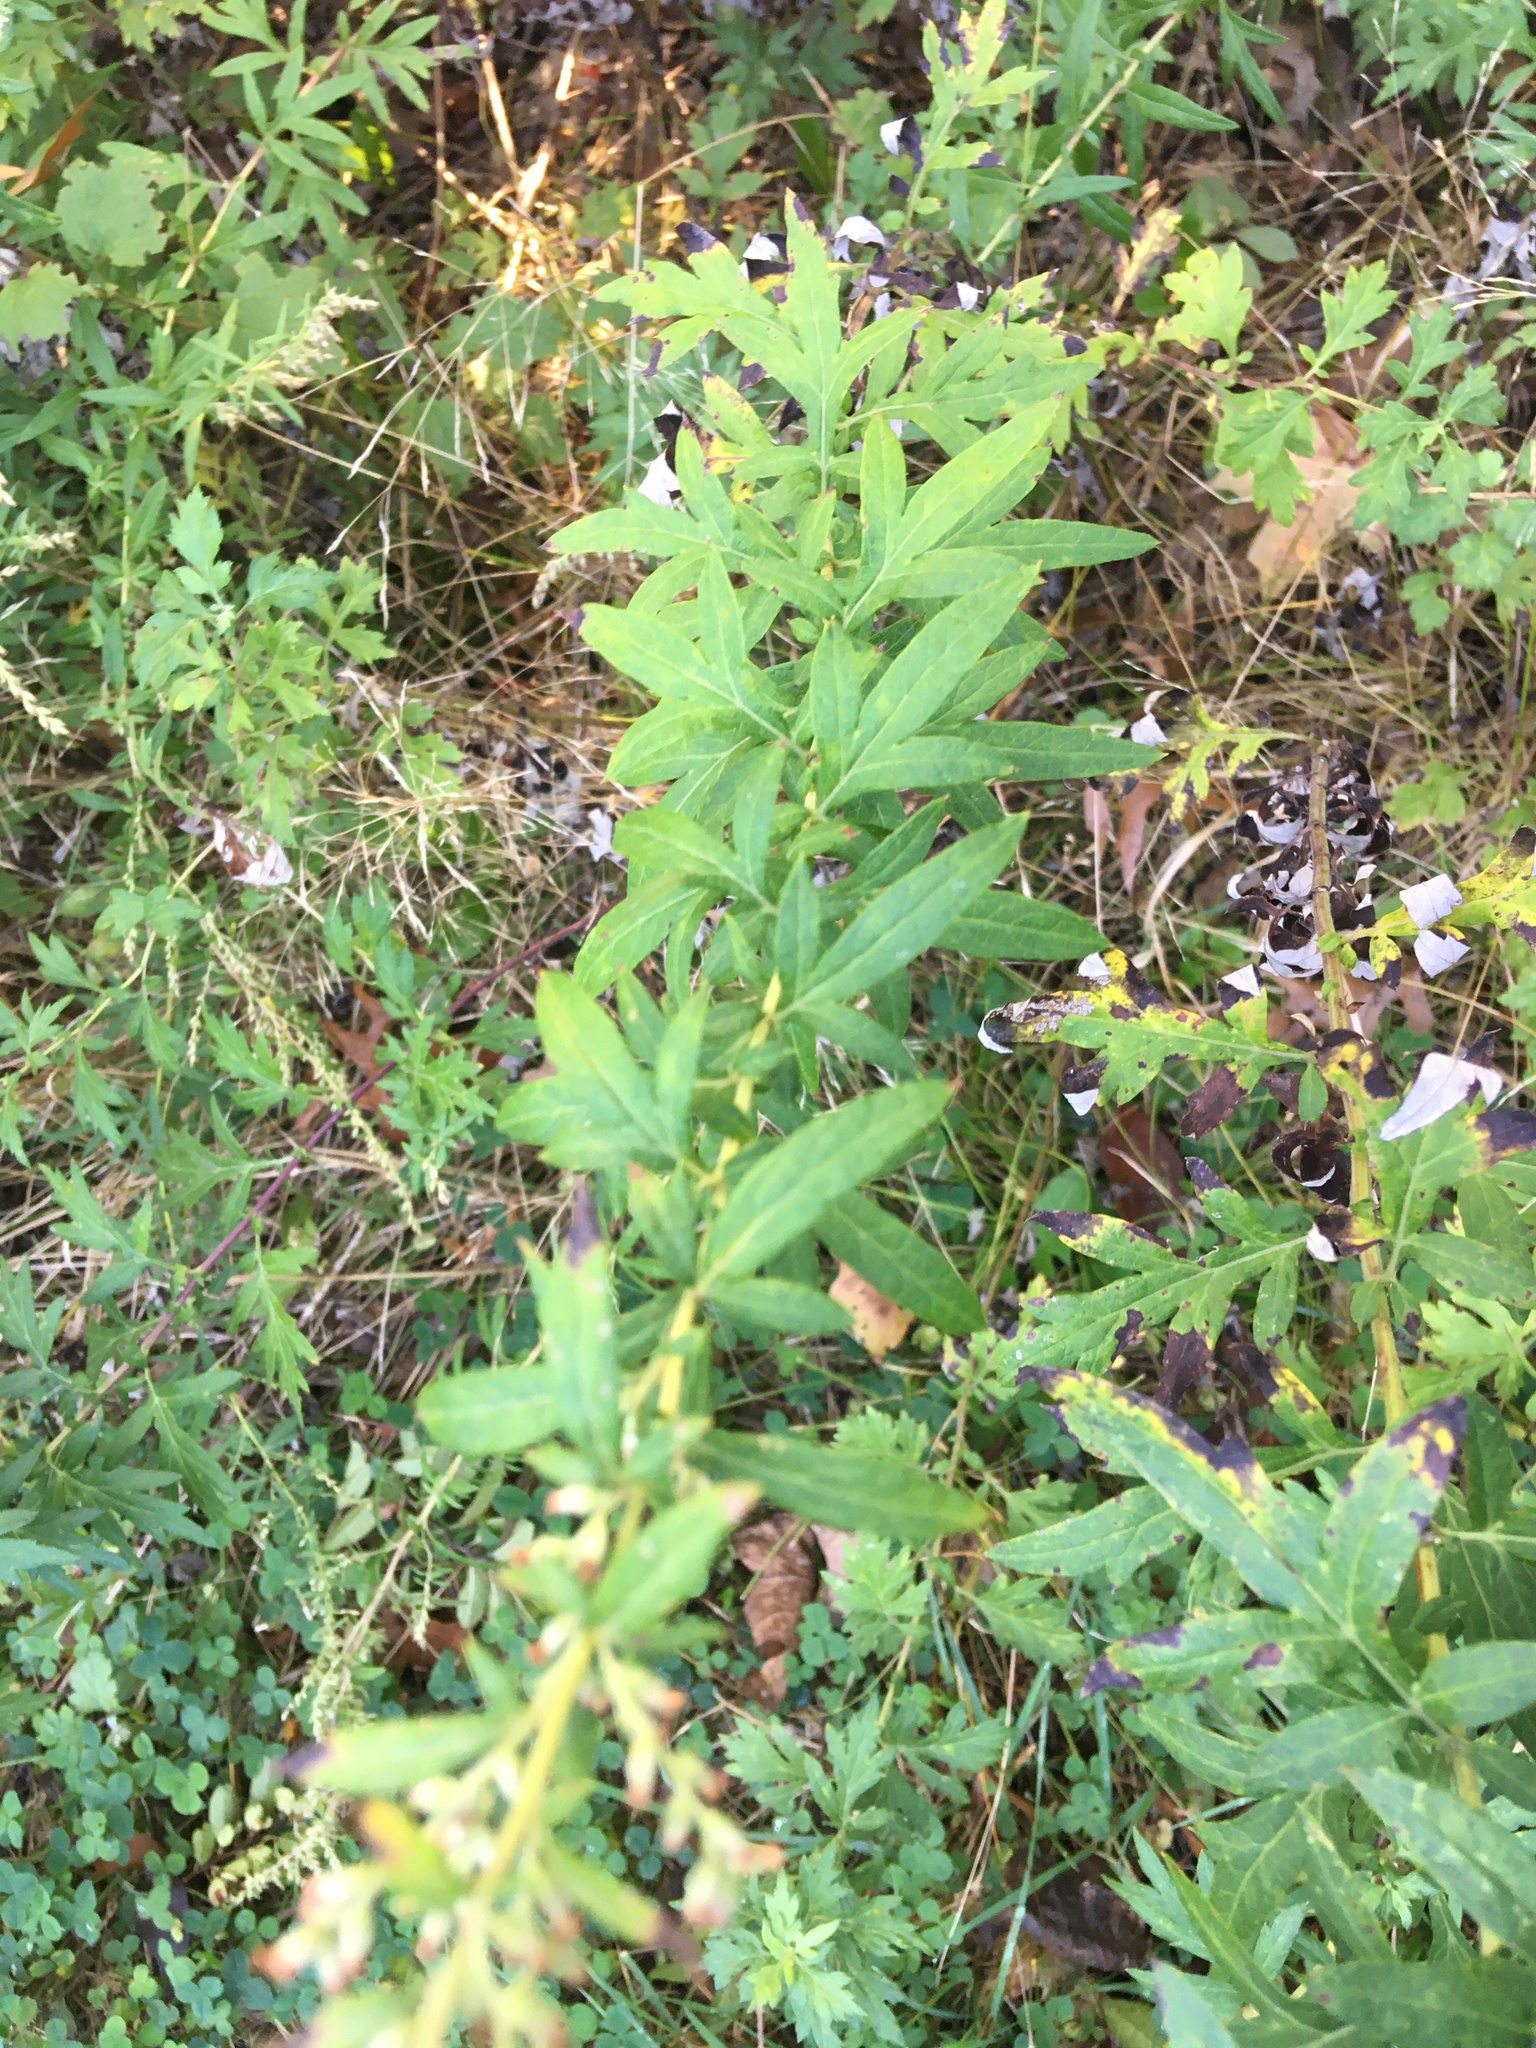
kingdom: Plantae
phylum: Tracheophyta
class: Magnoliopsida
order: Asterales
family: Asteraceae
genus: Artemisia
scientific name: Artemisia vulgaris
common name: Mugwort
